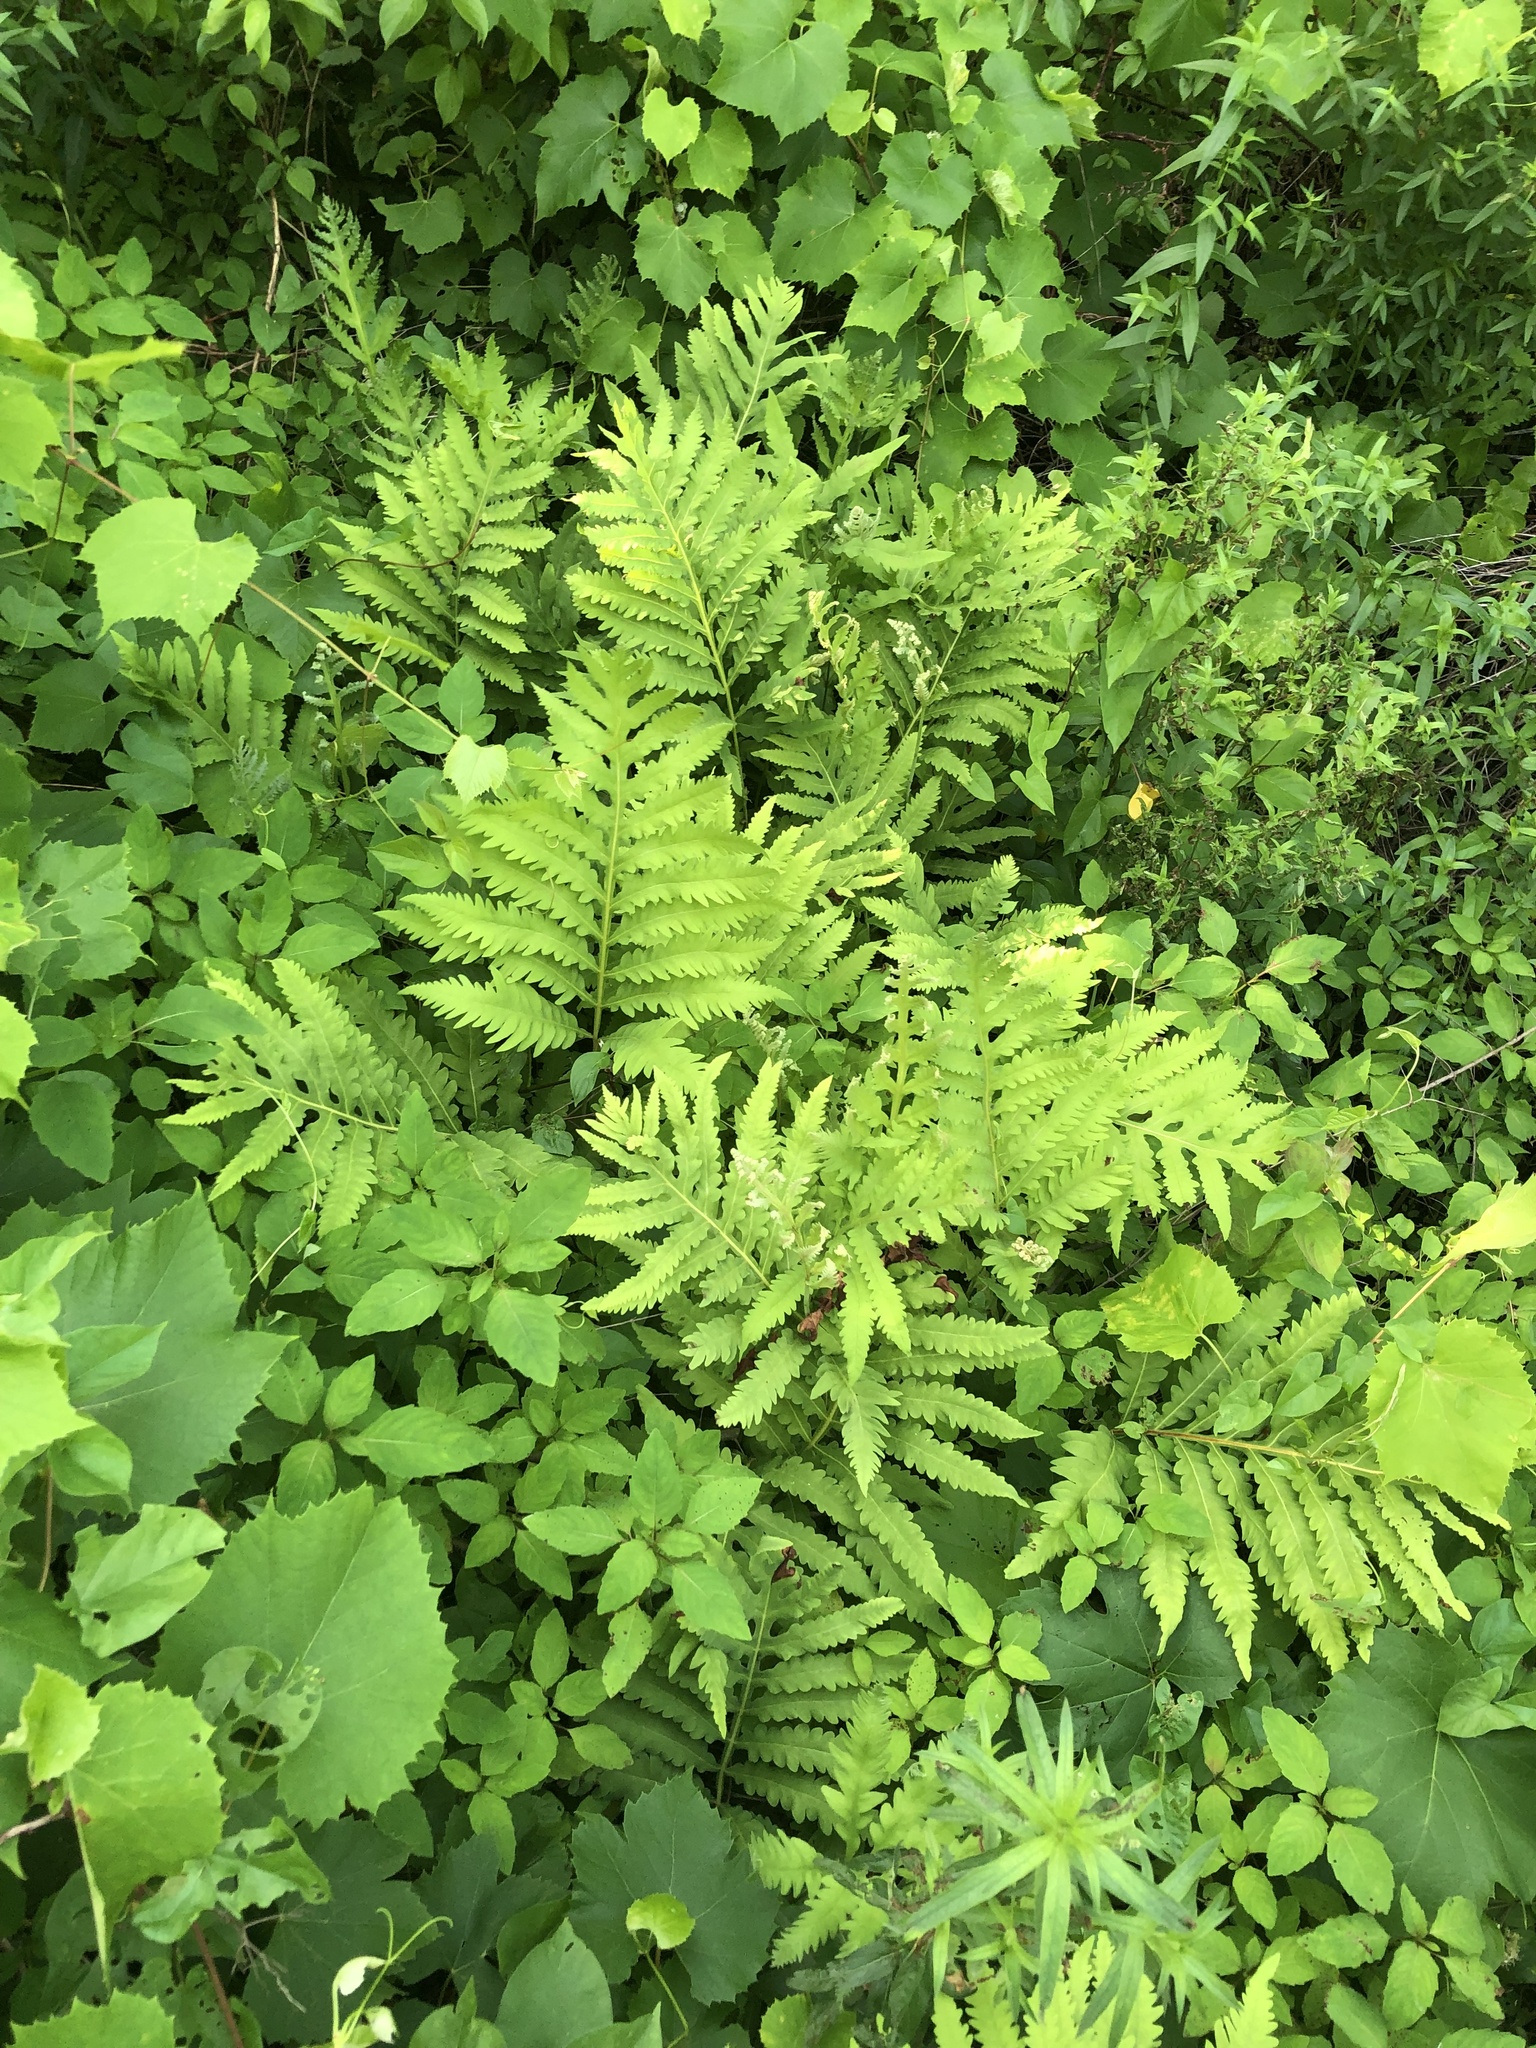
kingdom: Plantae
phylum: Tracheophyta
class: Polypodiopsida
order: Polypodiales
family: Onocleaceae
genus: Onoclea
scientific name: Onoclea sensibilis
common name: Sensitive fern
